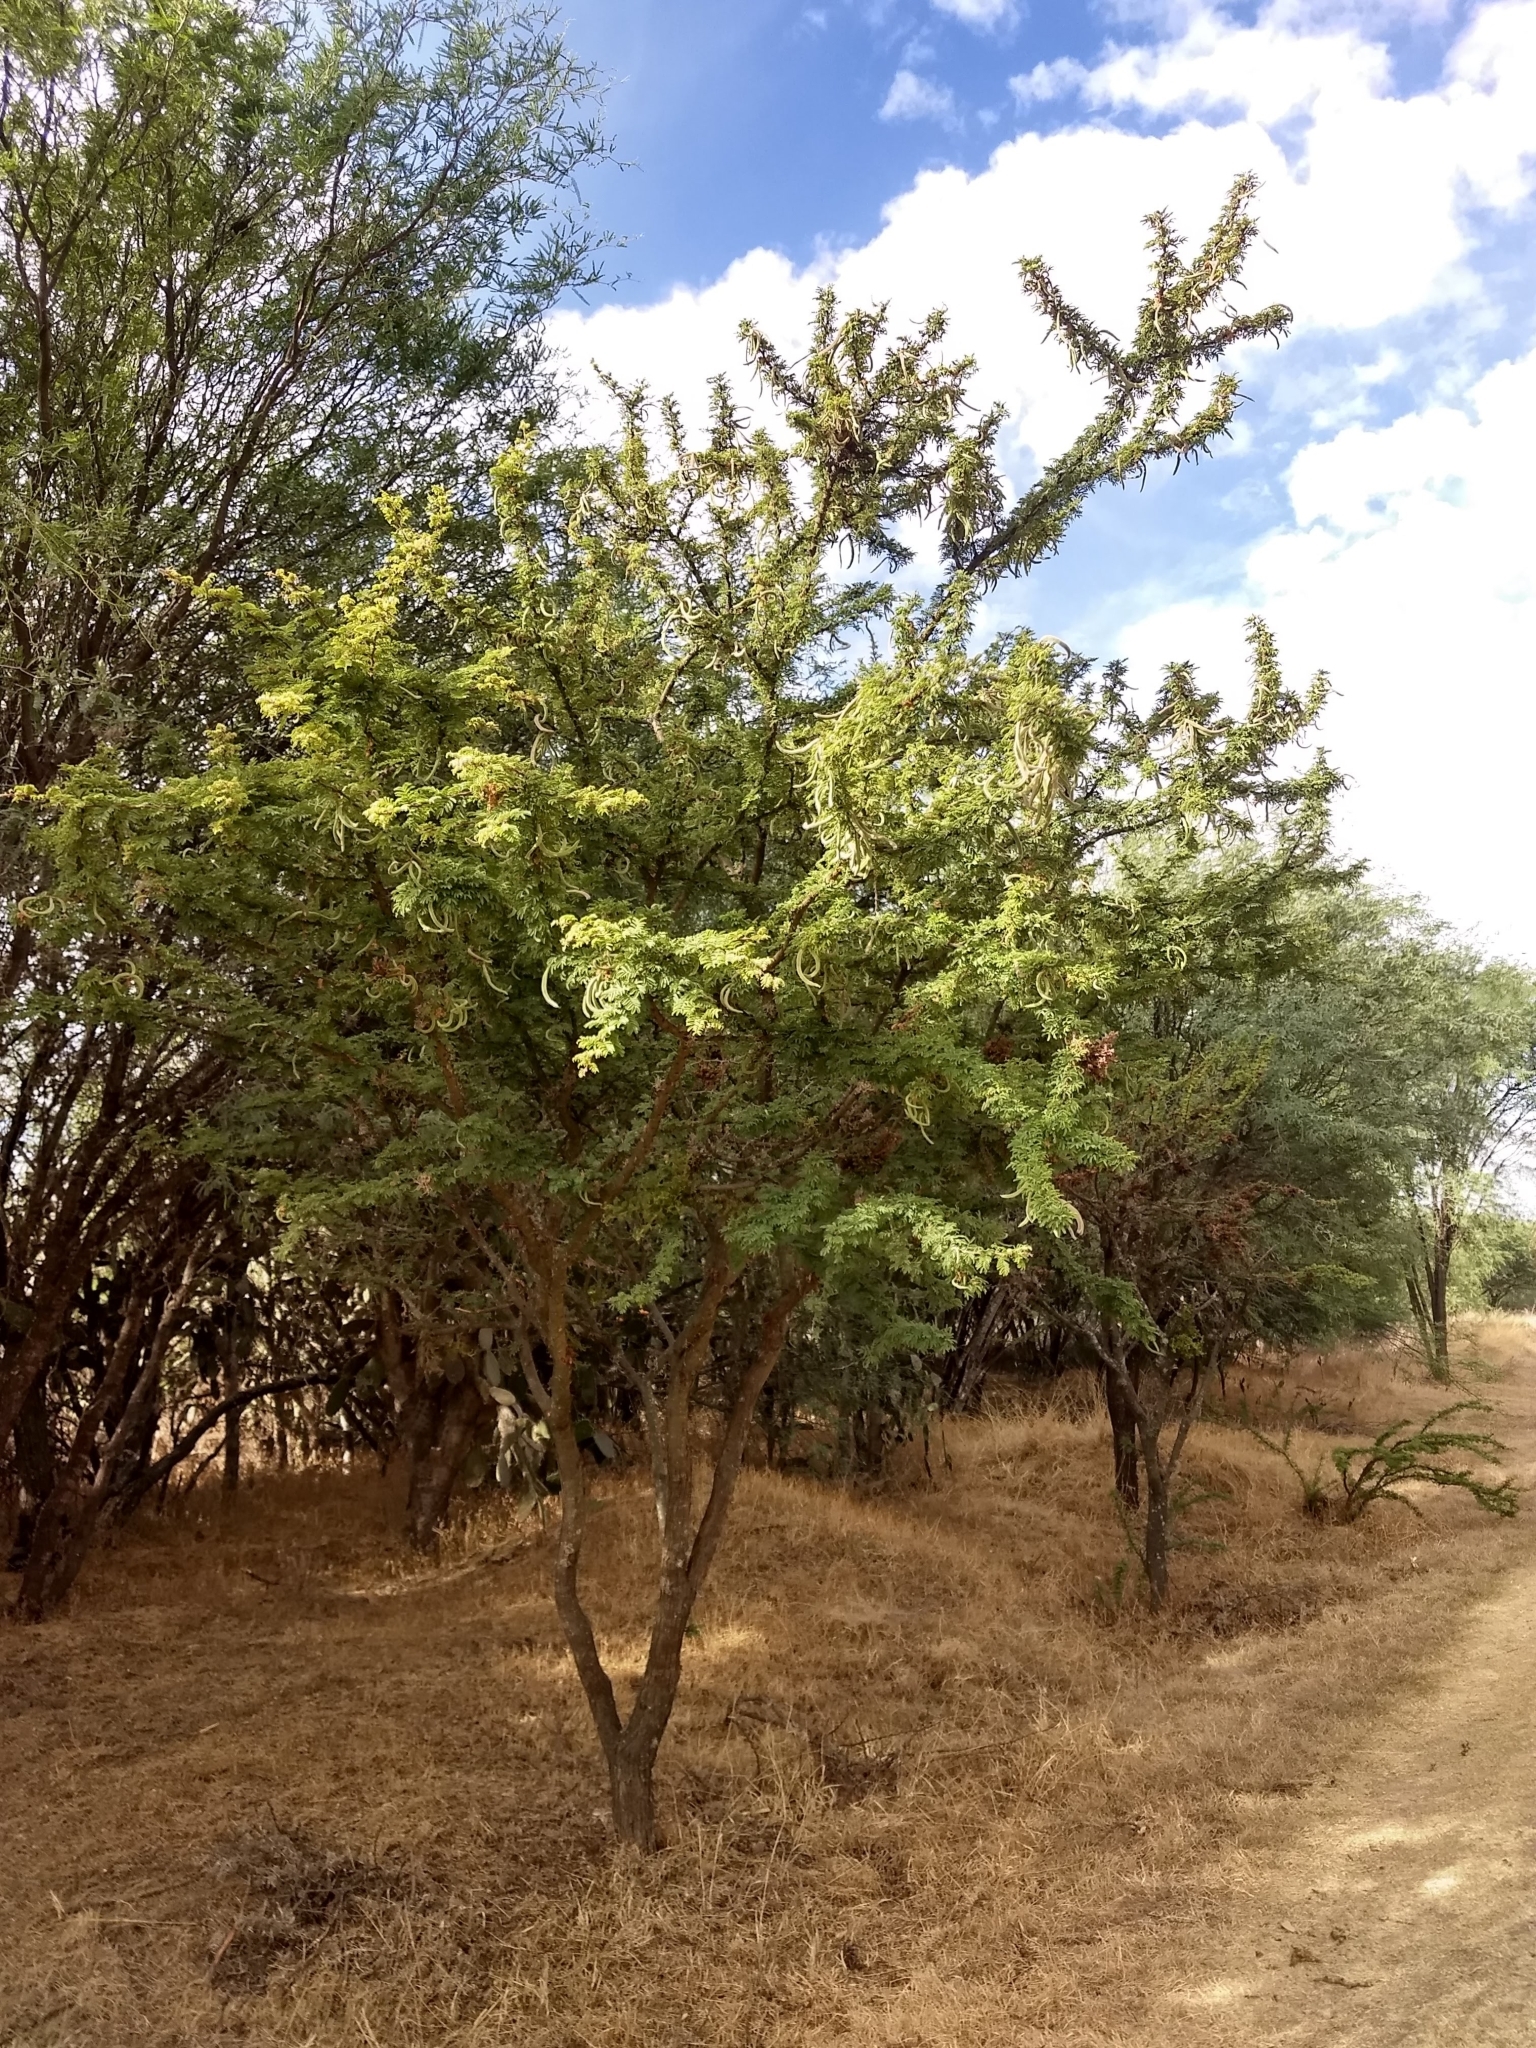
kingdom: Plantae
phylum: Tracheophyta
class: Magnoliopsida
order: Fabales
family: Fabaceae
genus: Vachellia
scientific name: Vachellia schaffneri
